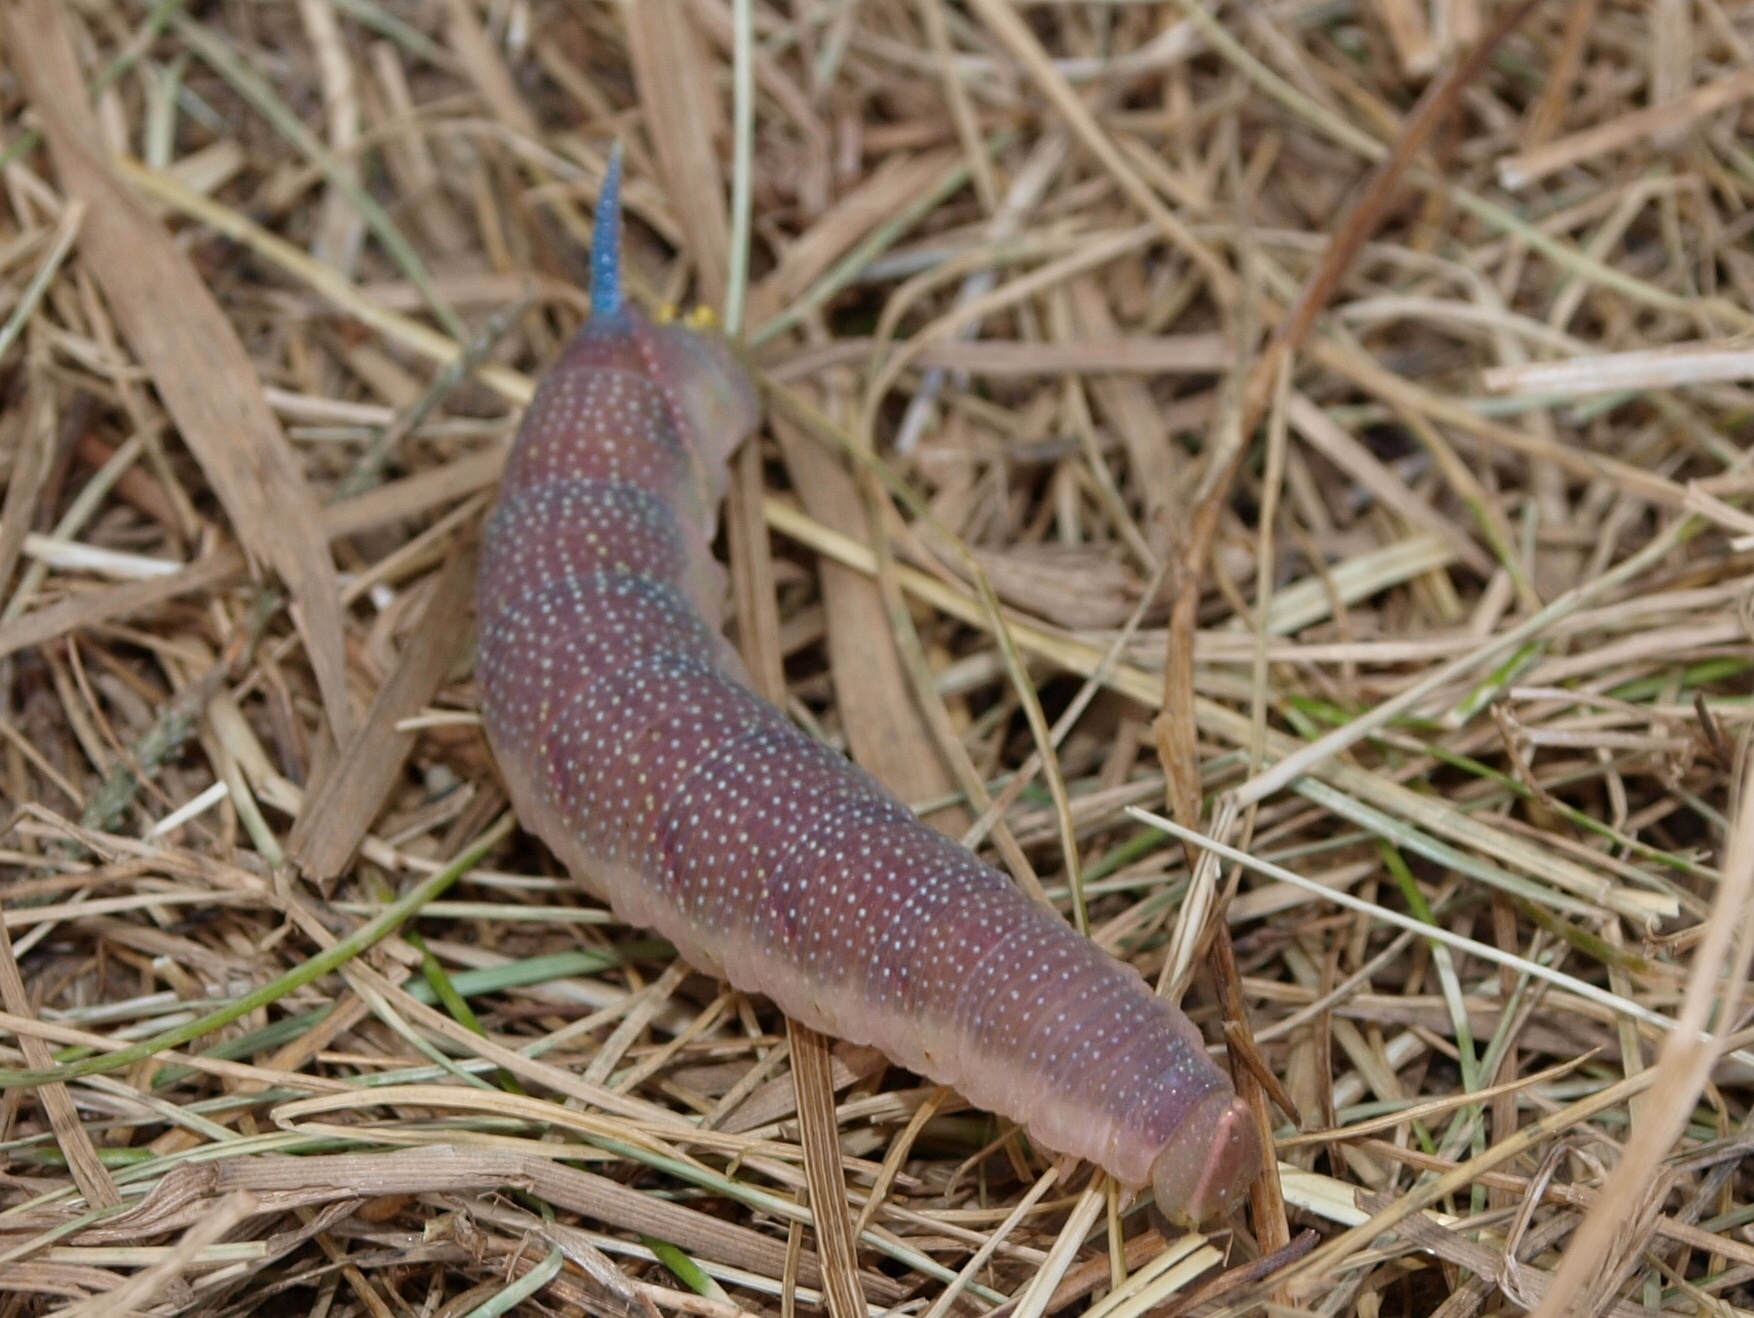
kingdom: Animalia
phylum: Arthropoda
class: Insecta
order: Lepidoptera
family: Sphingidae
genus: Mimas
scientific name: Mimas tiliae
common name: Lime hawk-moth
